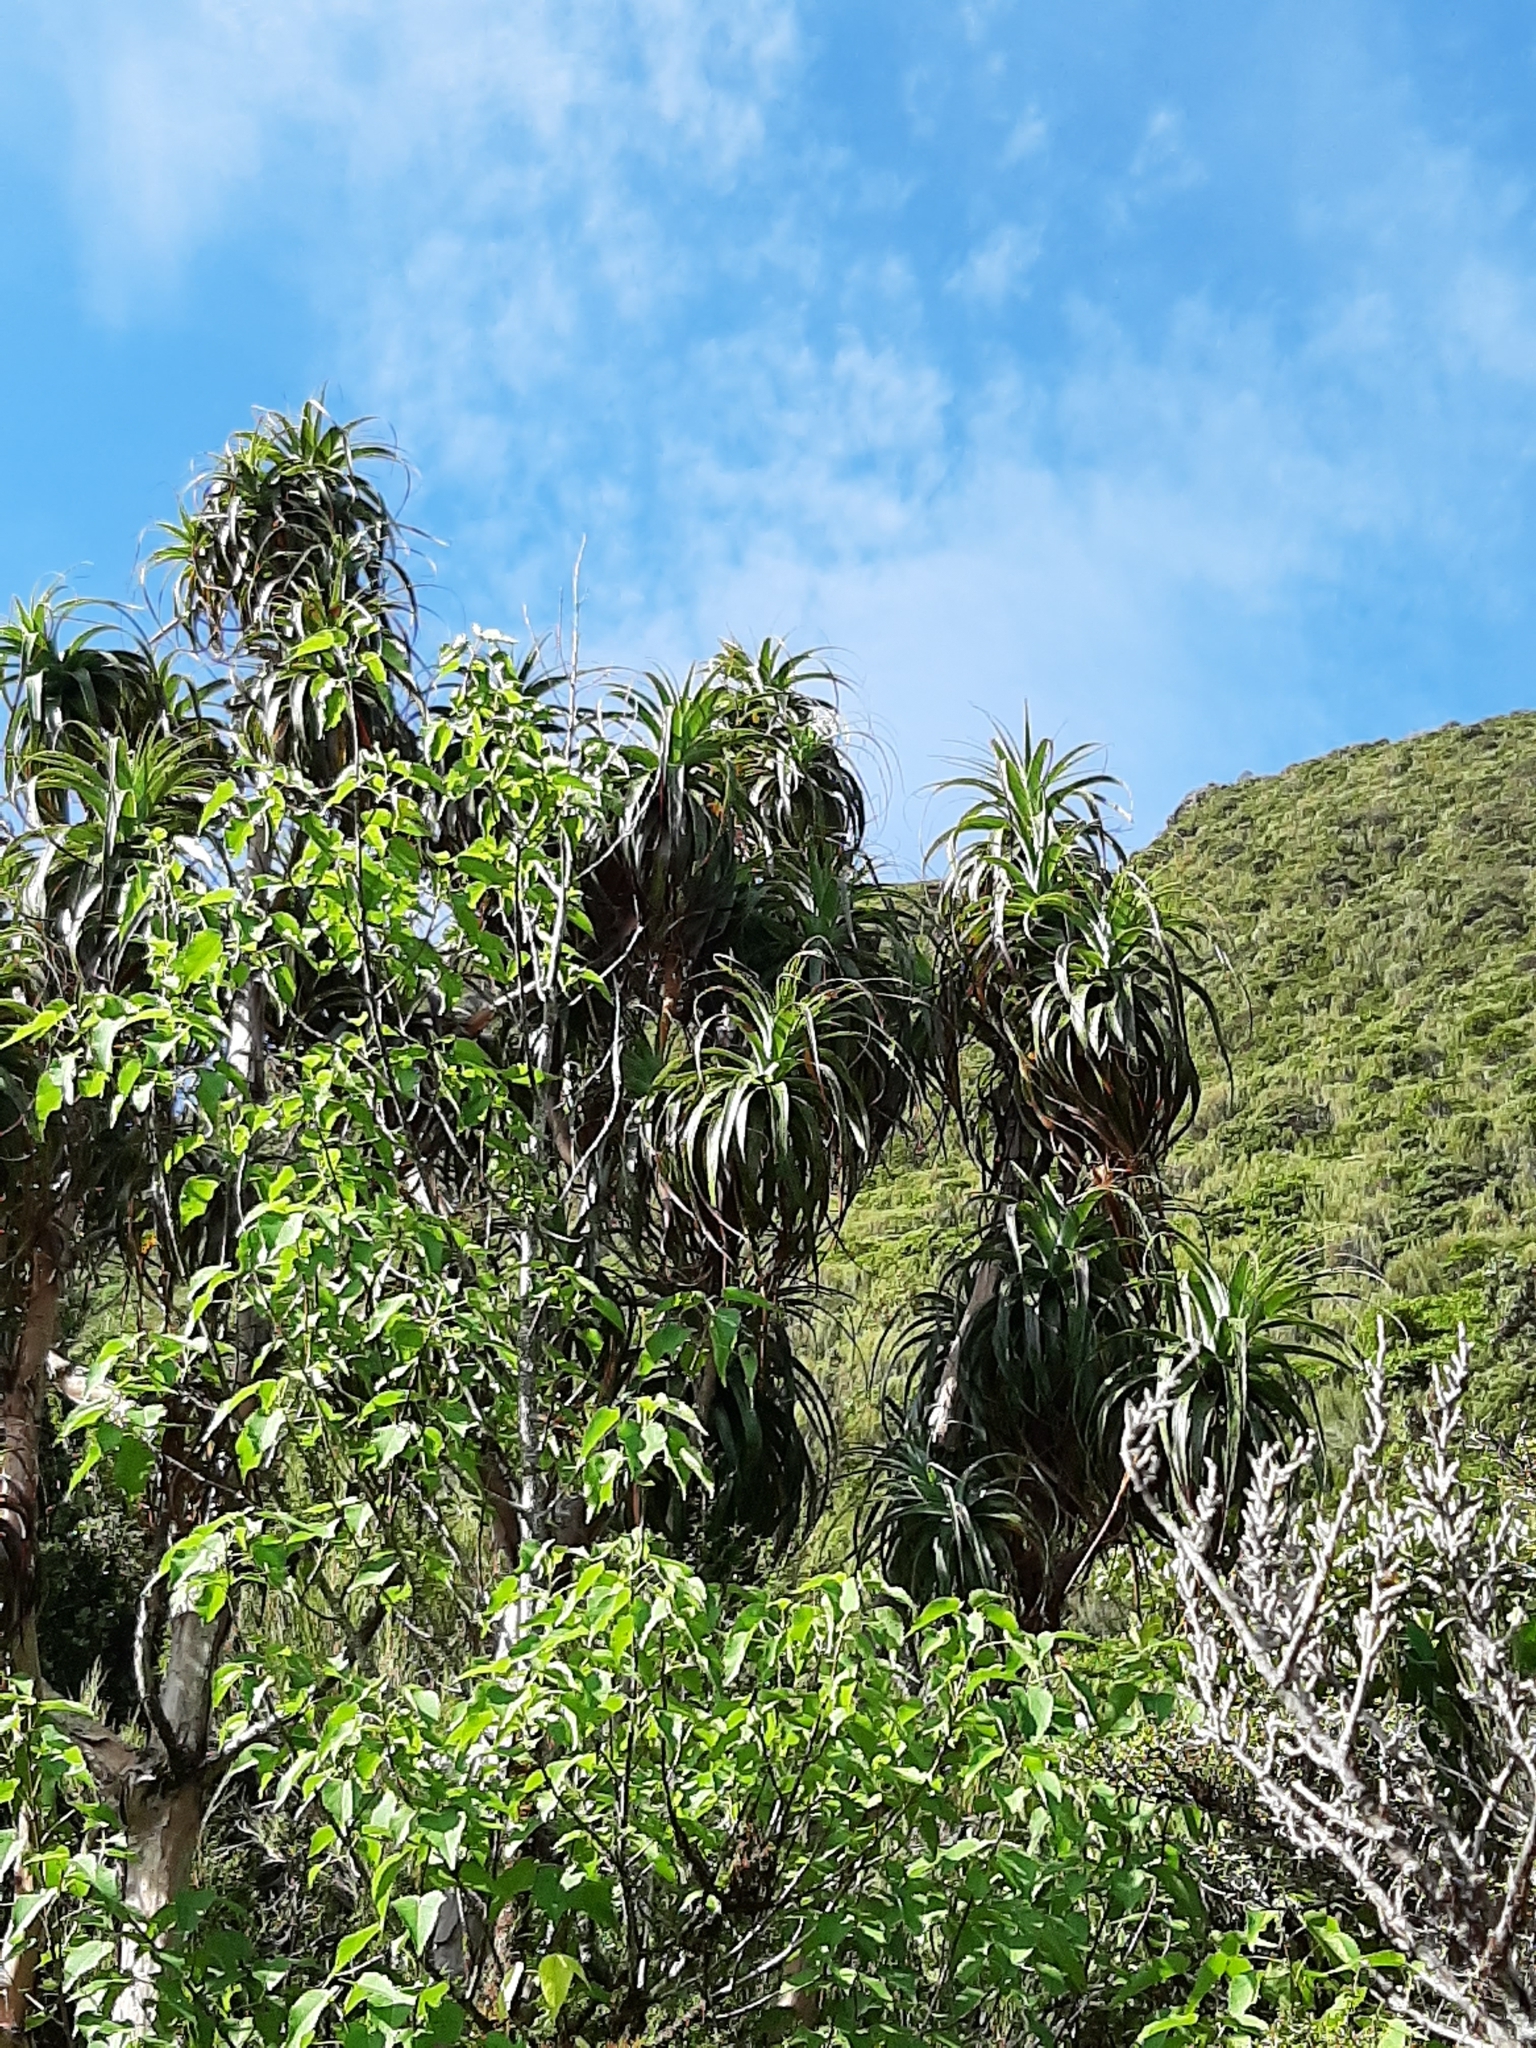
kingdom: Plantae
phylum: Tracheophyta
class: Magnoliopsida
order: Ericales
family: Ericaceae
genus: Dracophyllum
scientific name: Dracophyllum traversii
